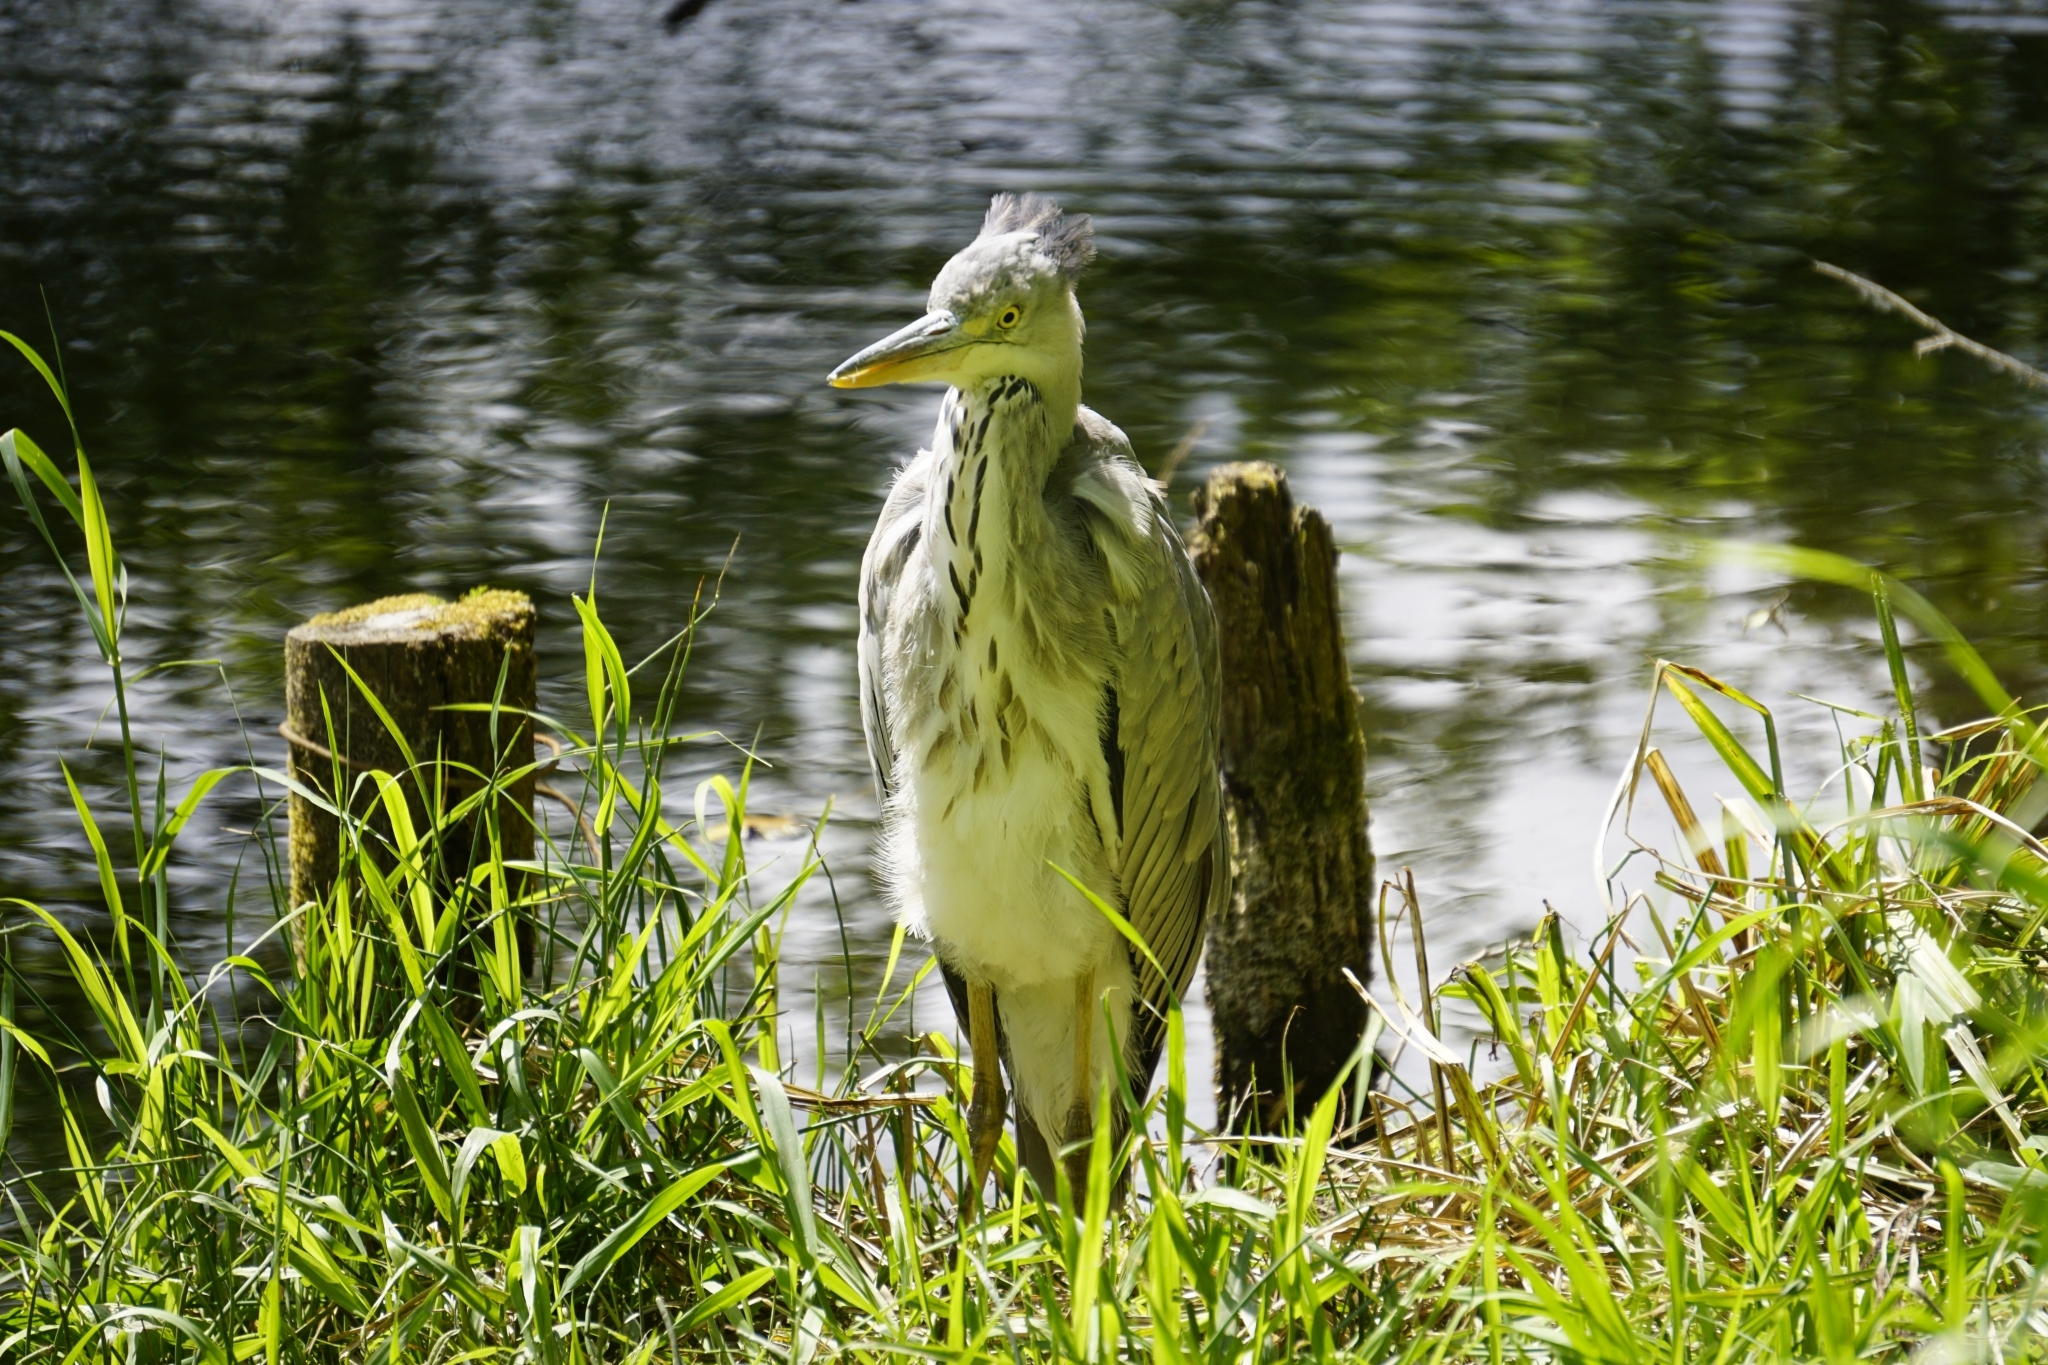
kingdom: Animalia
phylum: Chordata
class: Aves
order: Pelecaniformes
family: Ardeidae
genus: Ardea
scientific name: Ardea cinerea
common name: Grey heron
